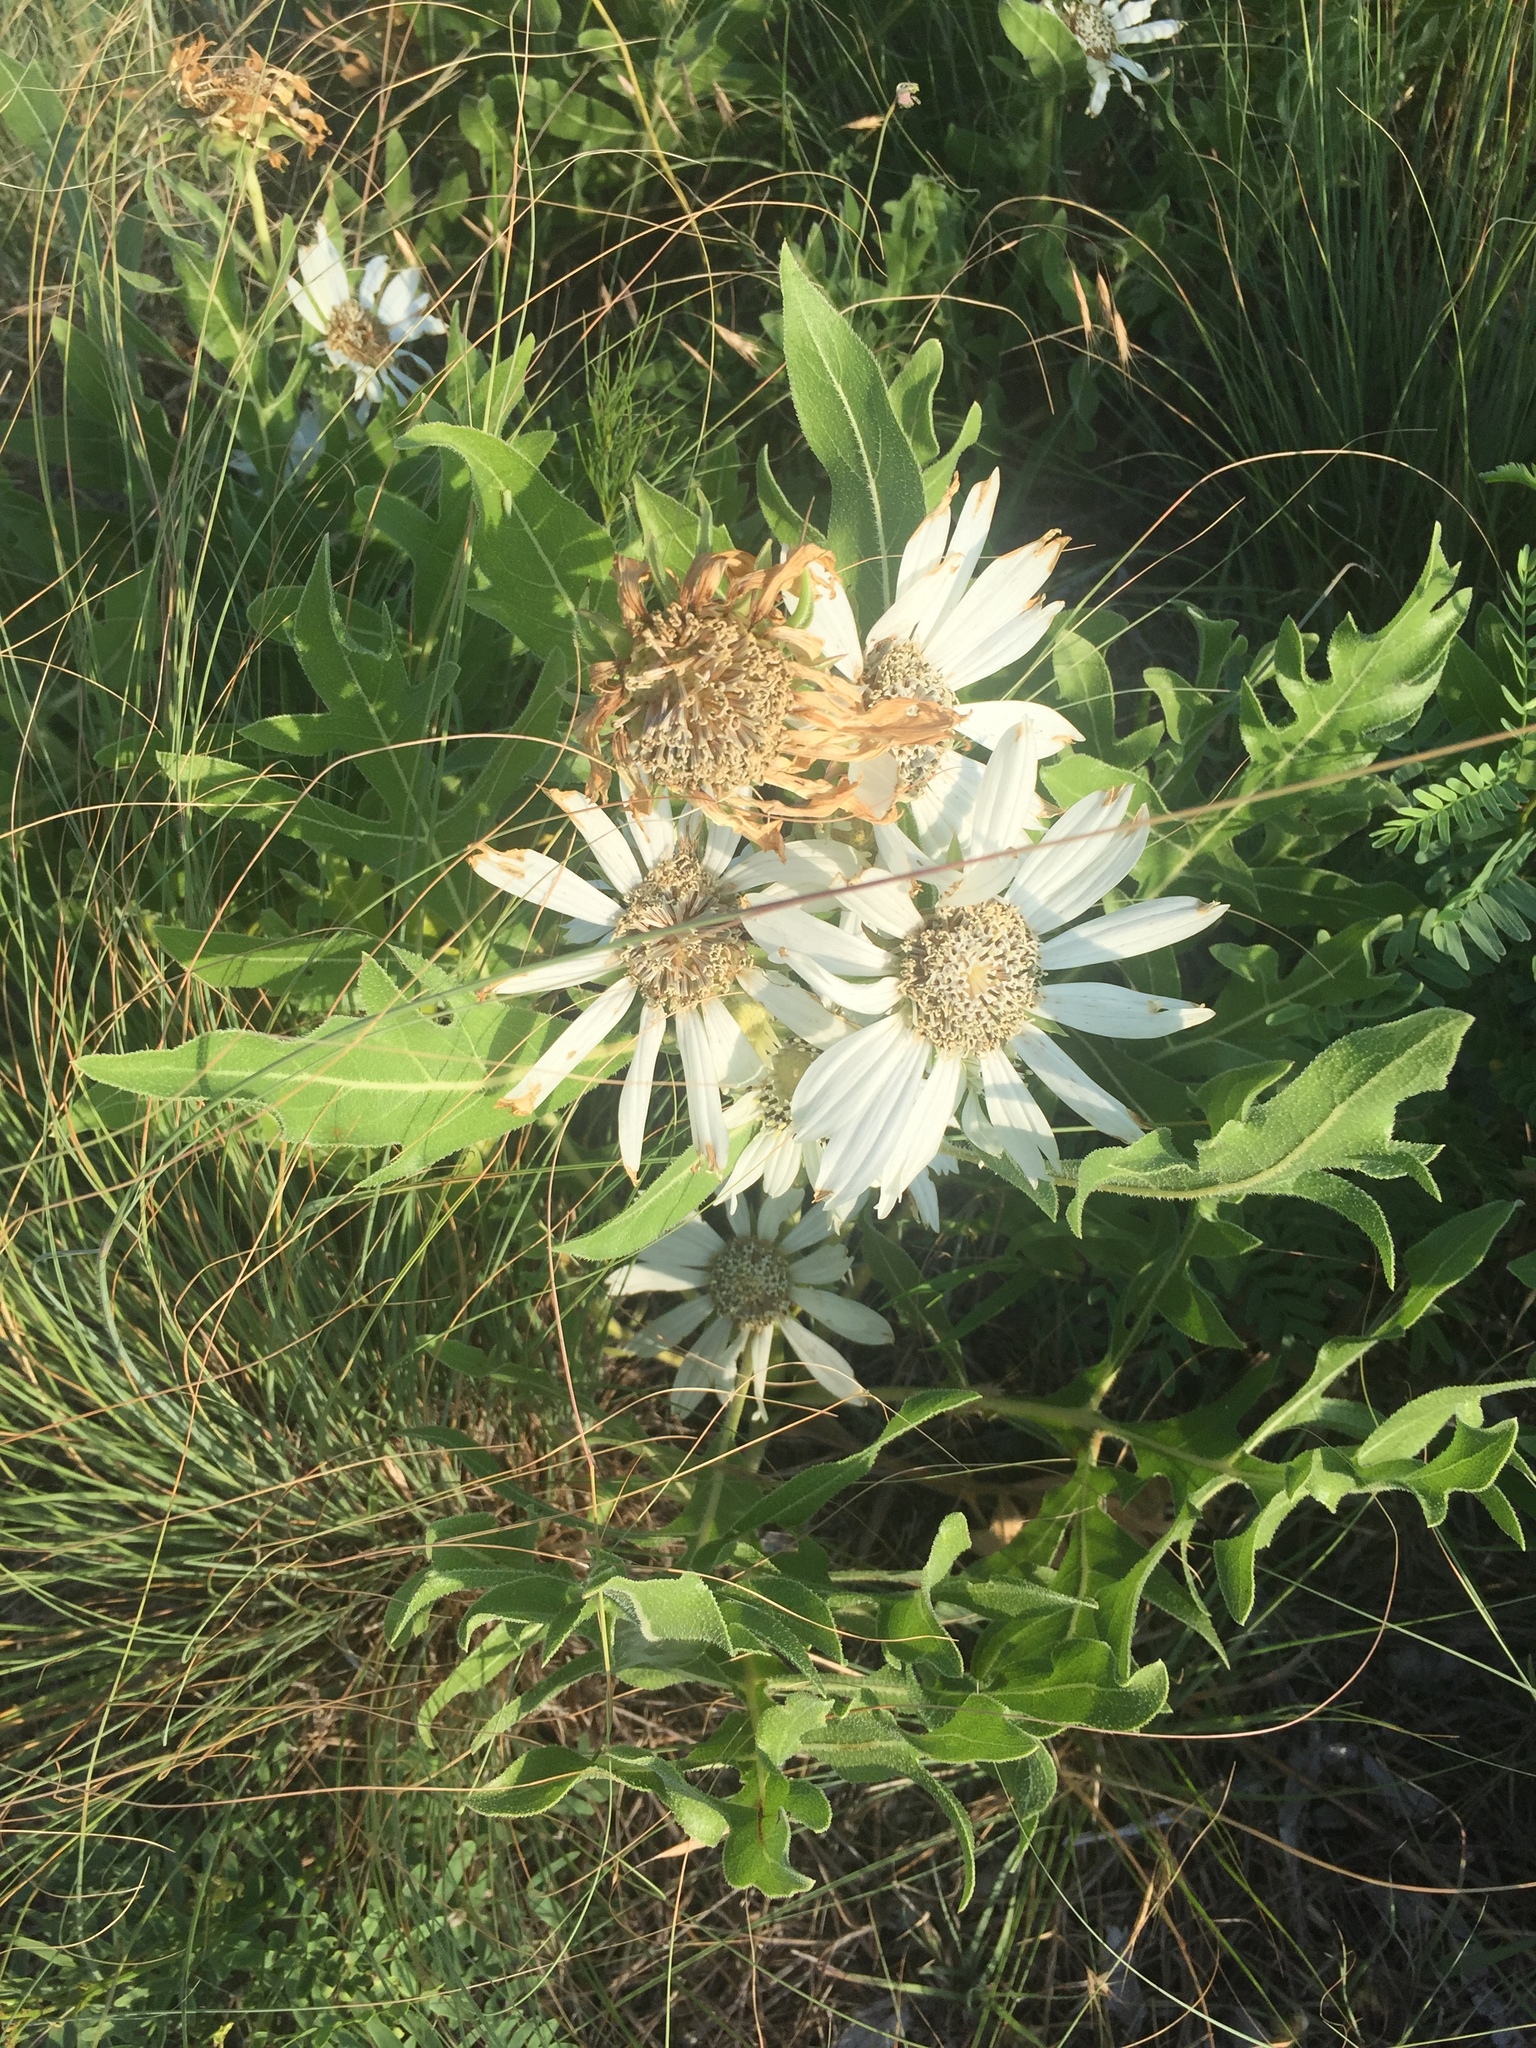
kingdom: Plantae
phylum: Tracheophyta
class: Magnoliopsida
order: Asterales
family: Asteraceae
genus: Silphium
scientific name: Silphium albiflorum
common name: White rosinweed
